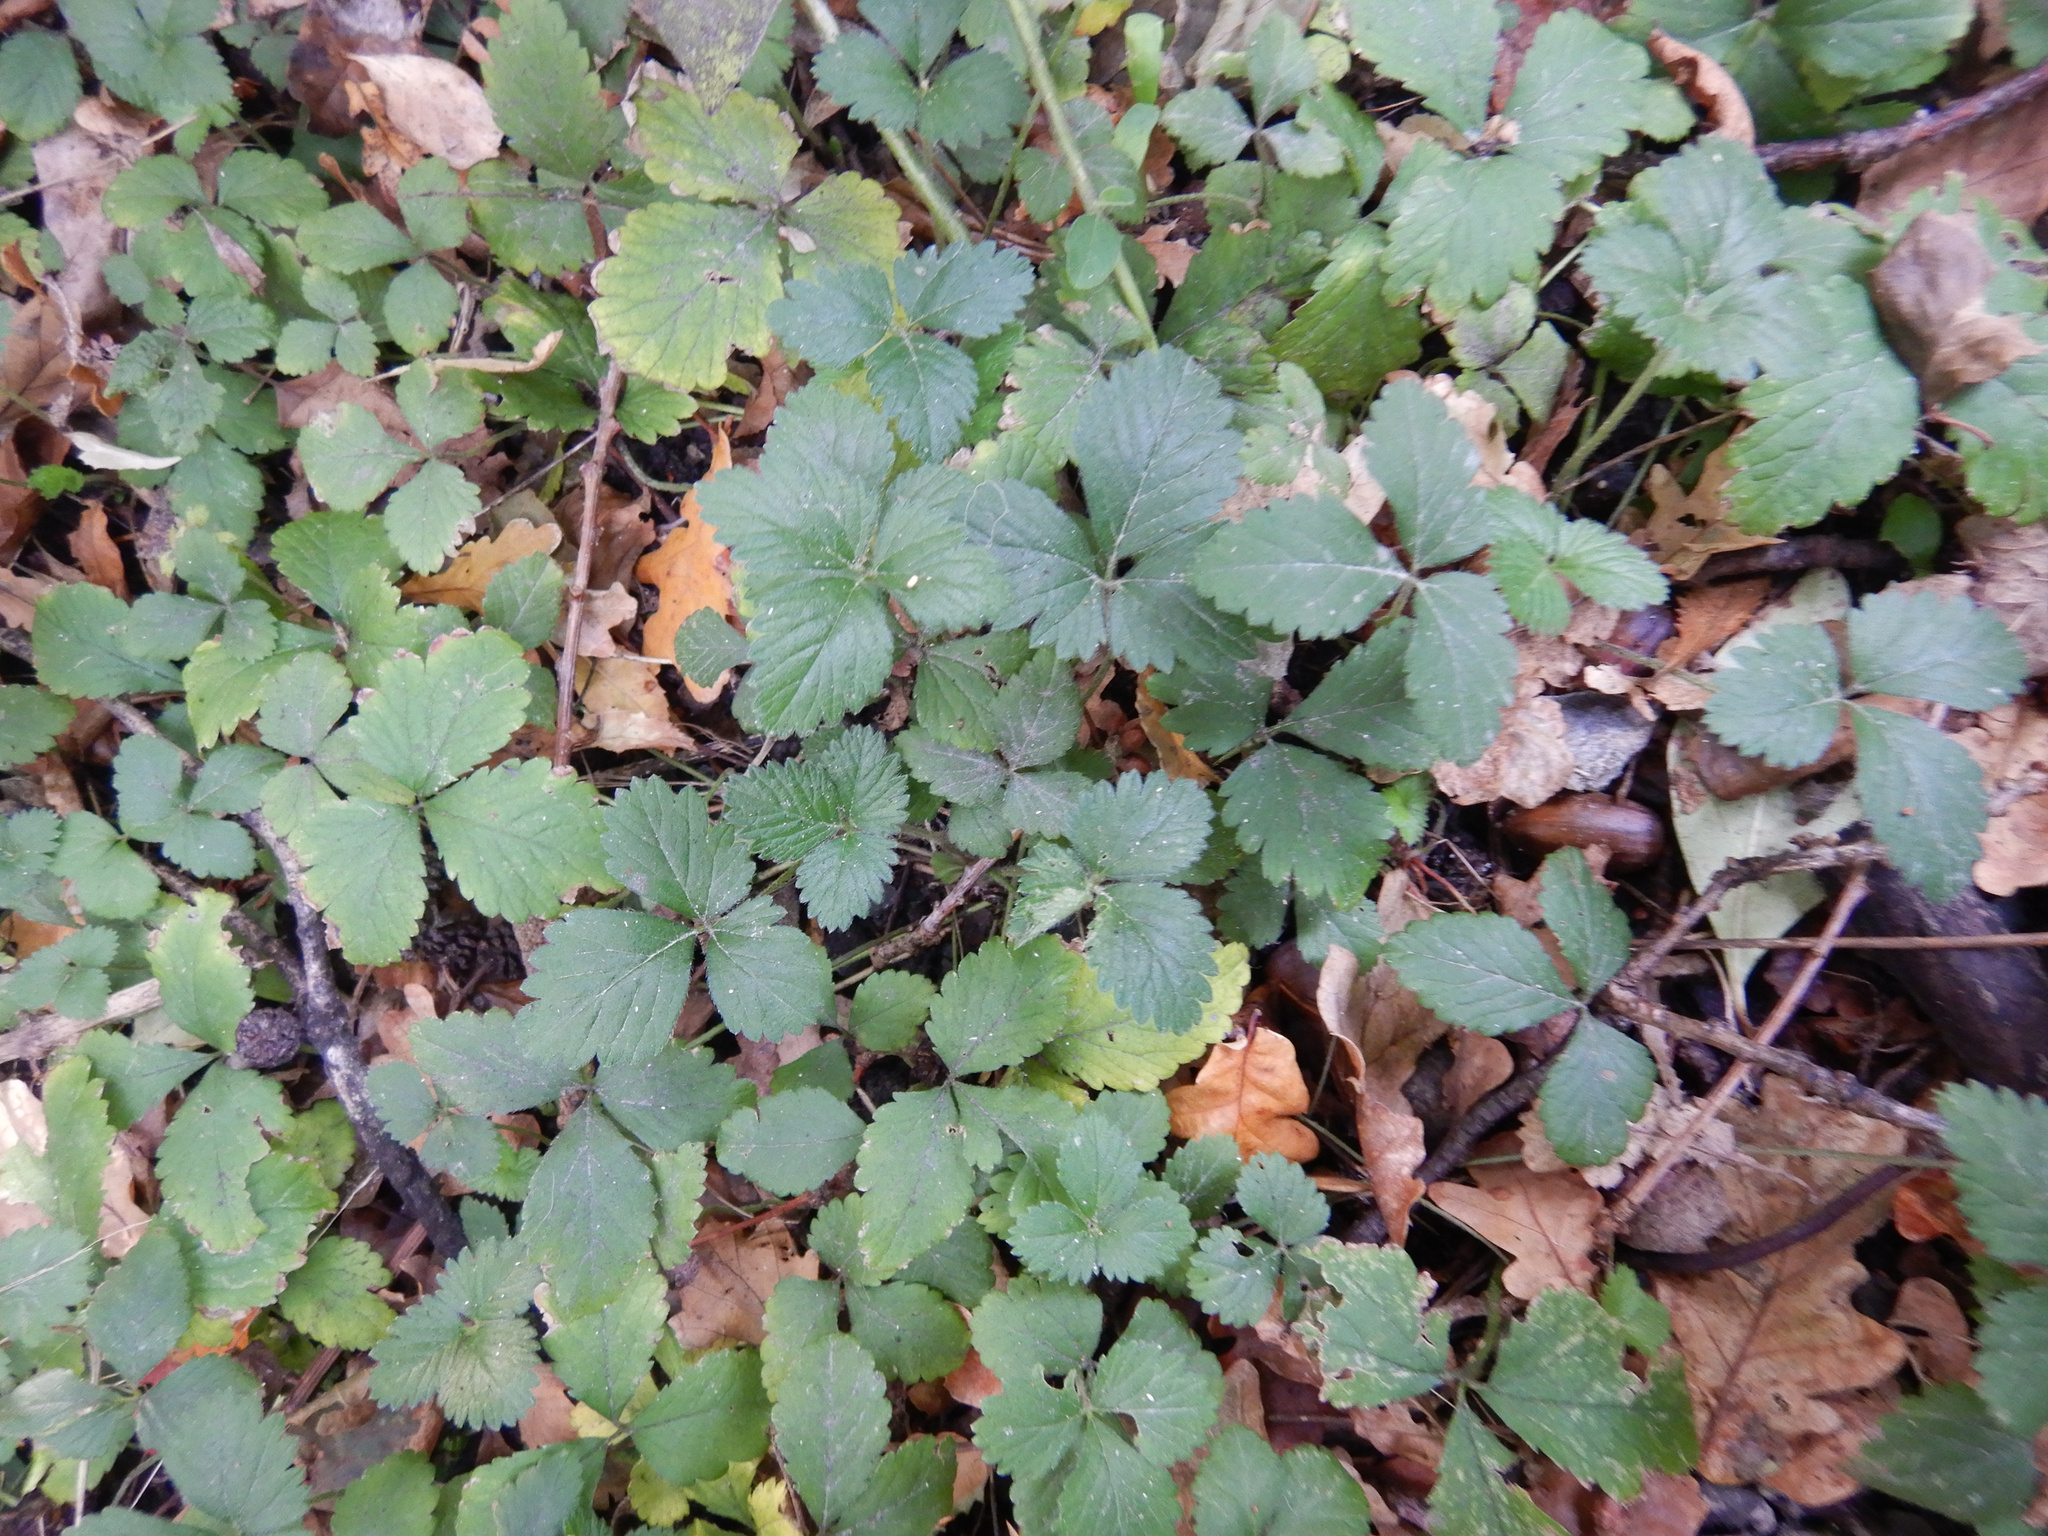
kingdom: Plantae
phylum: Tracheophyta
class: Magnoliopsida
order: Rosales
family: Rosaceae
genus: Potentilla
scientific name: Potentilla indica
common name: Yellow-flowered strawberry
